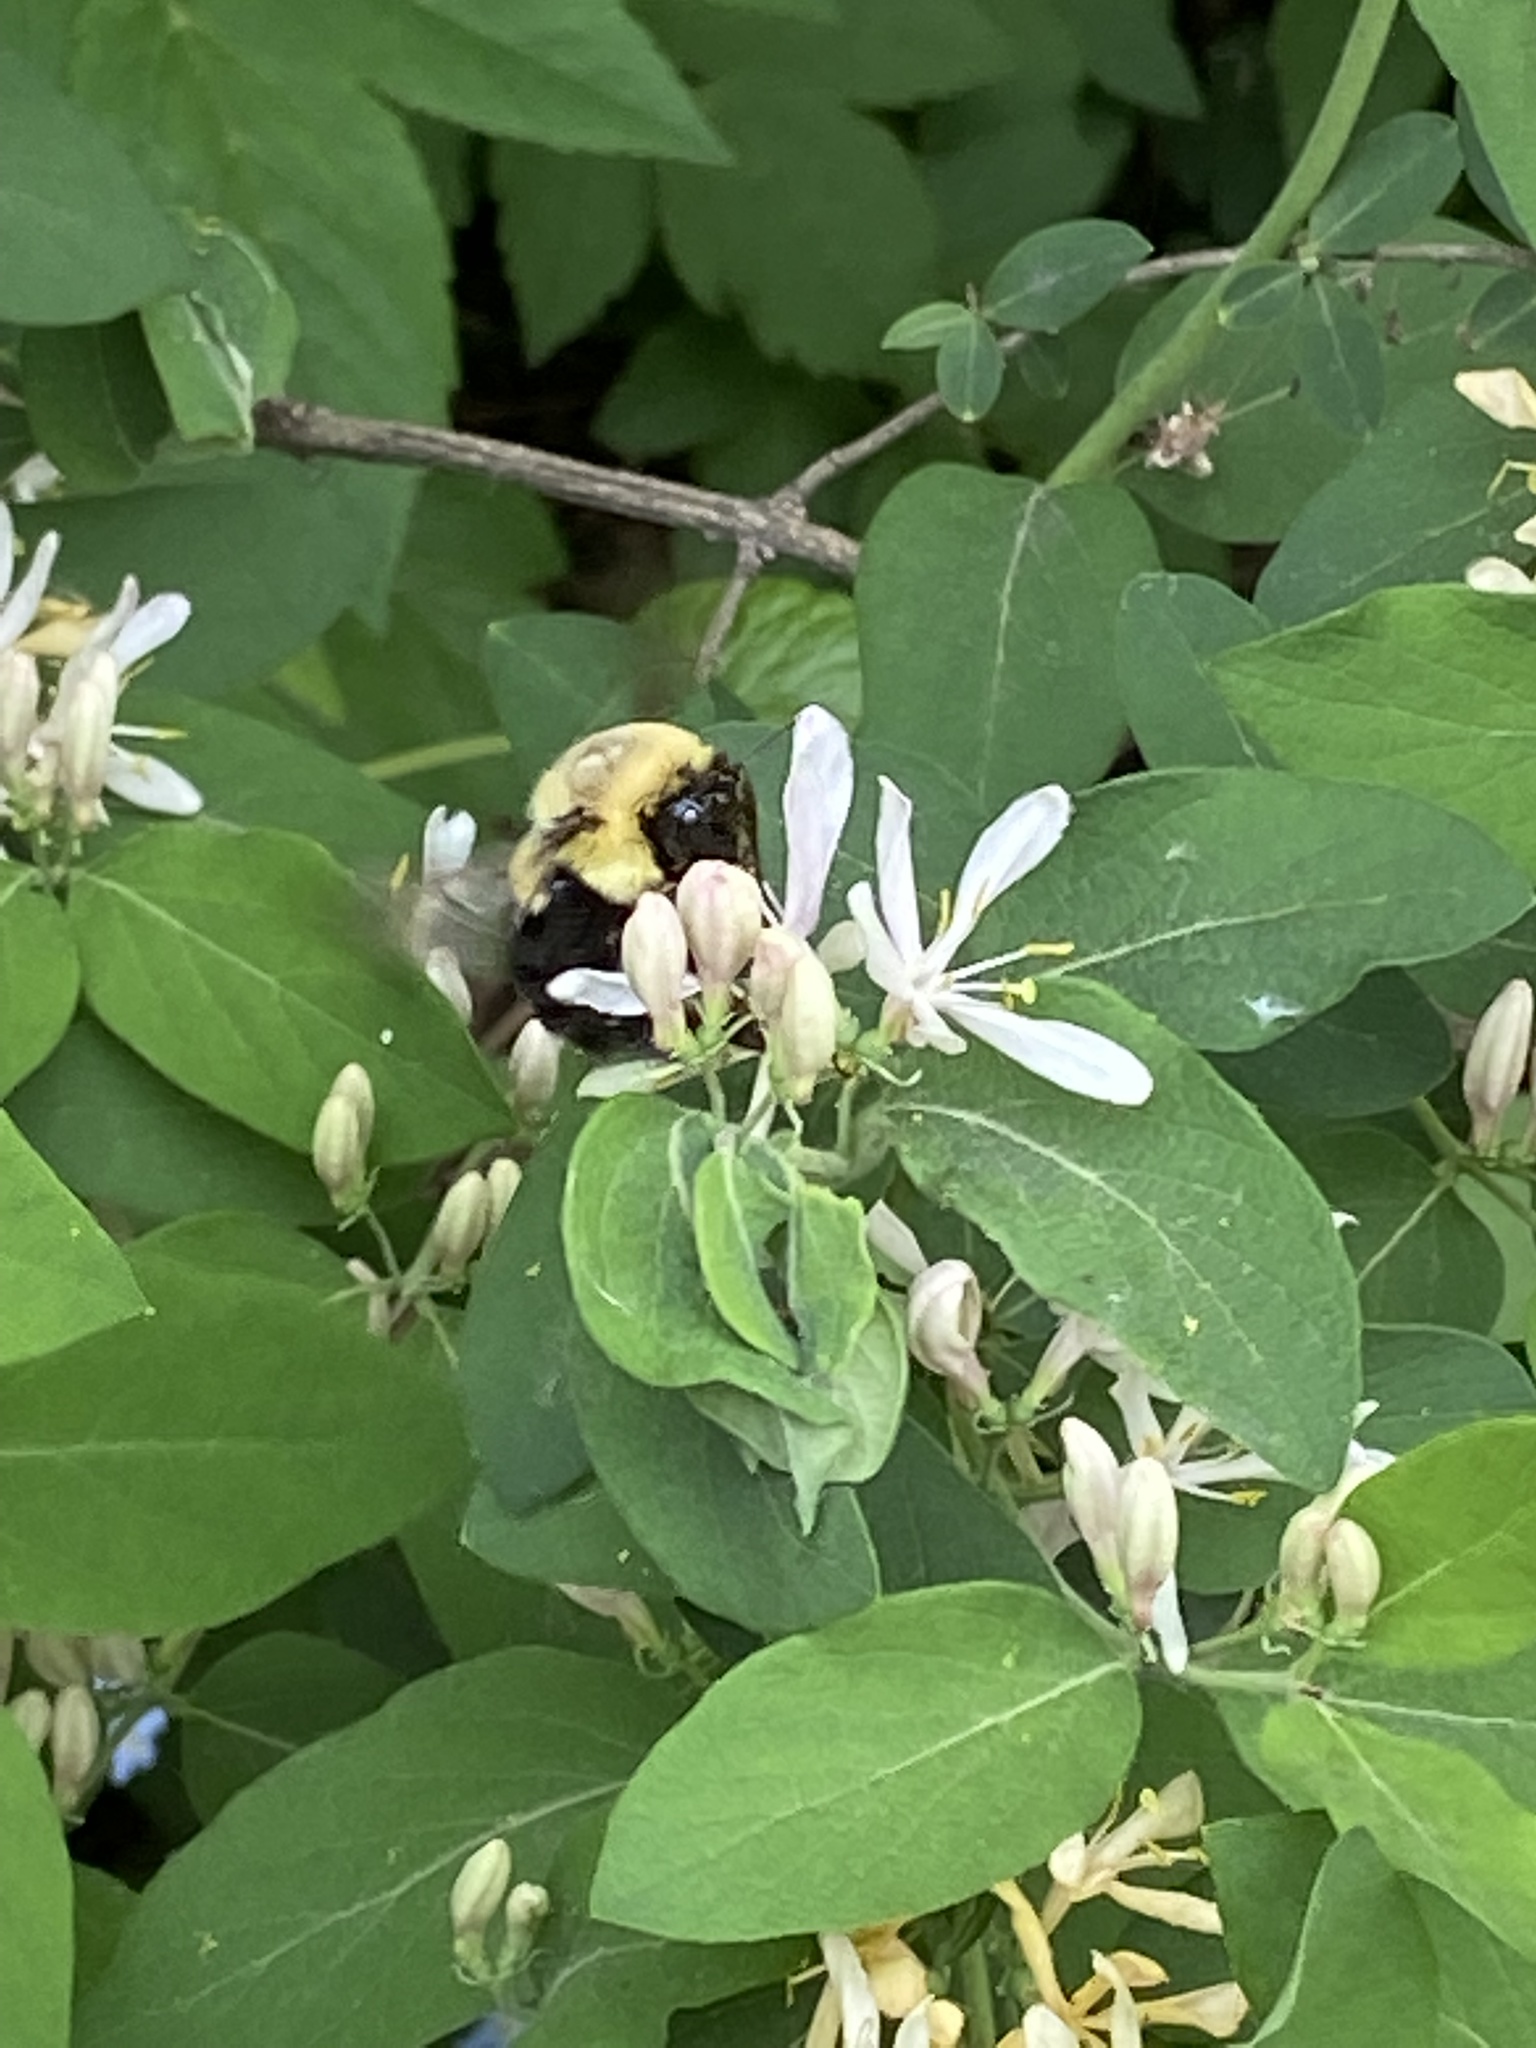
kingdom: Animalia
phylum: Arthropoda
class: Insecta
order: Hymenoptera
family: Apidae
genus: Bombus
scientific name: Bombus impatiens
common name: Common eastern bumble bee
